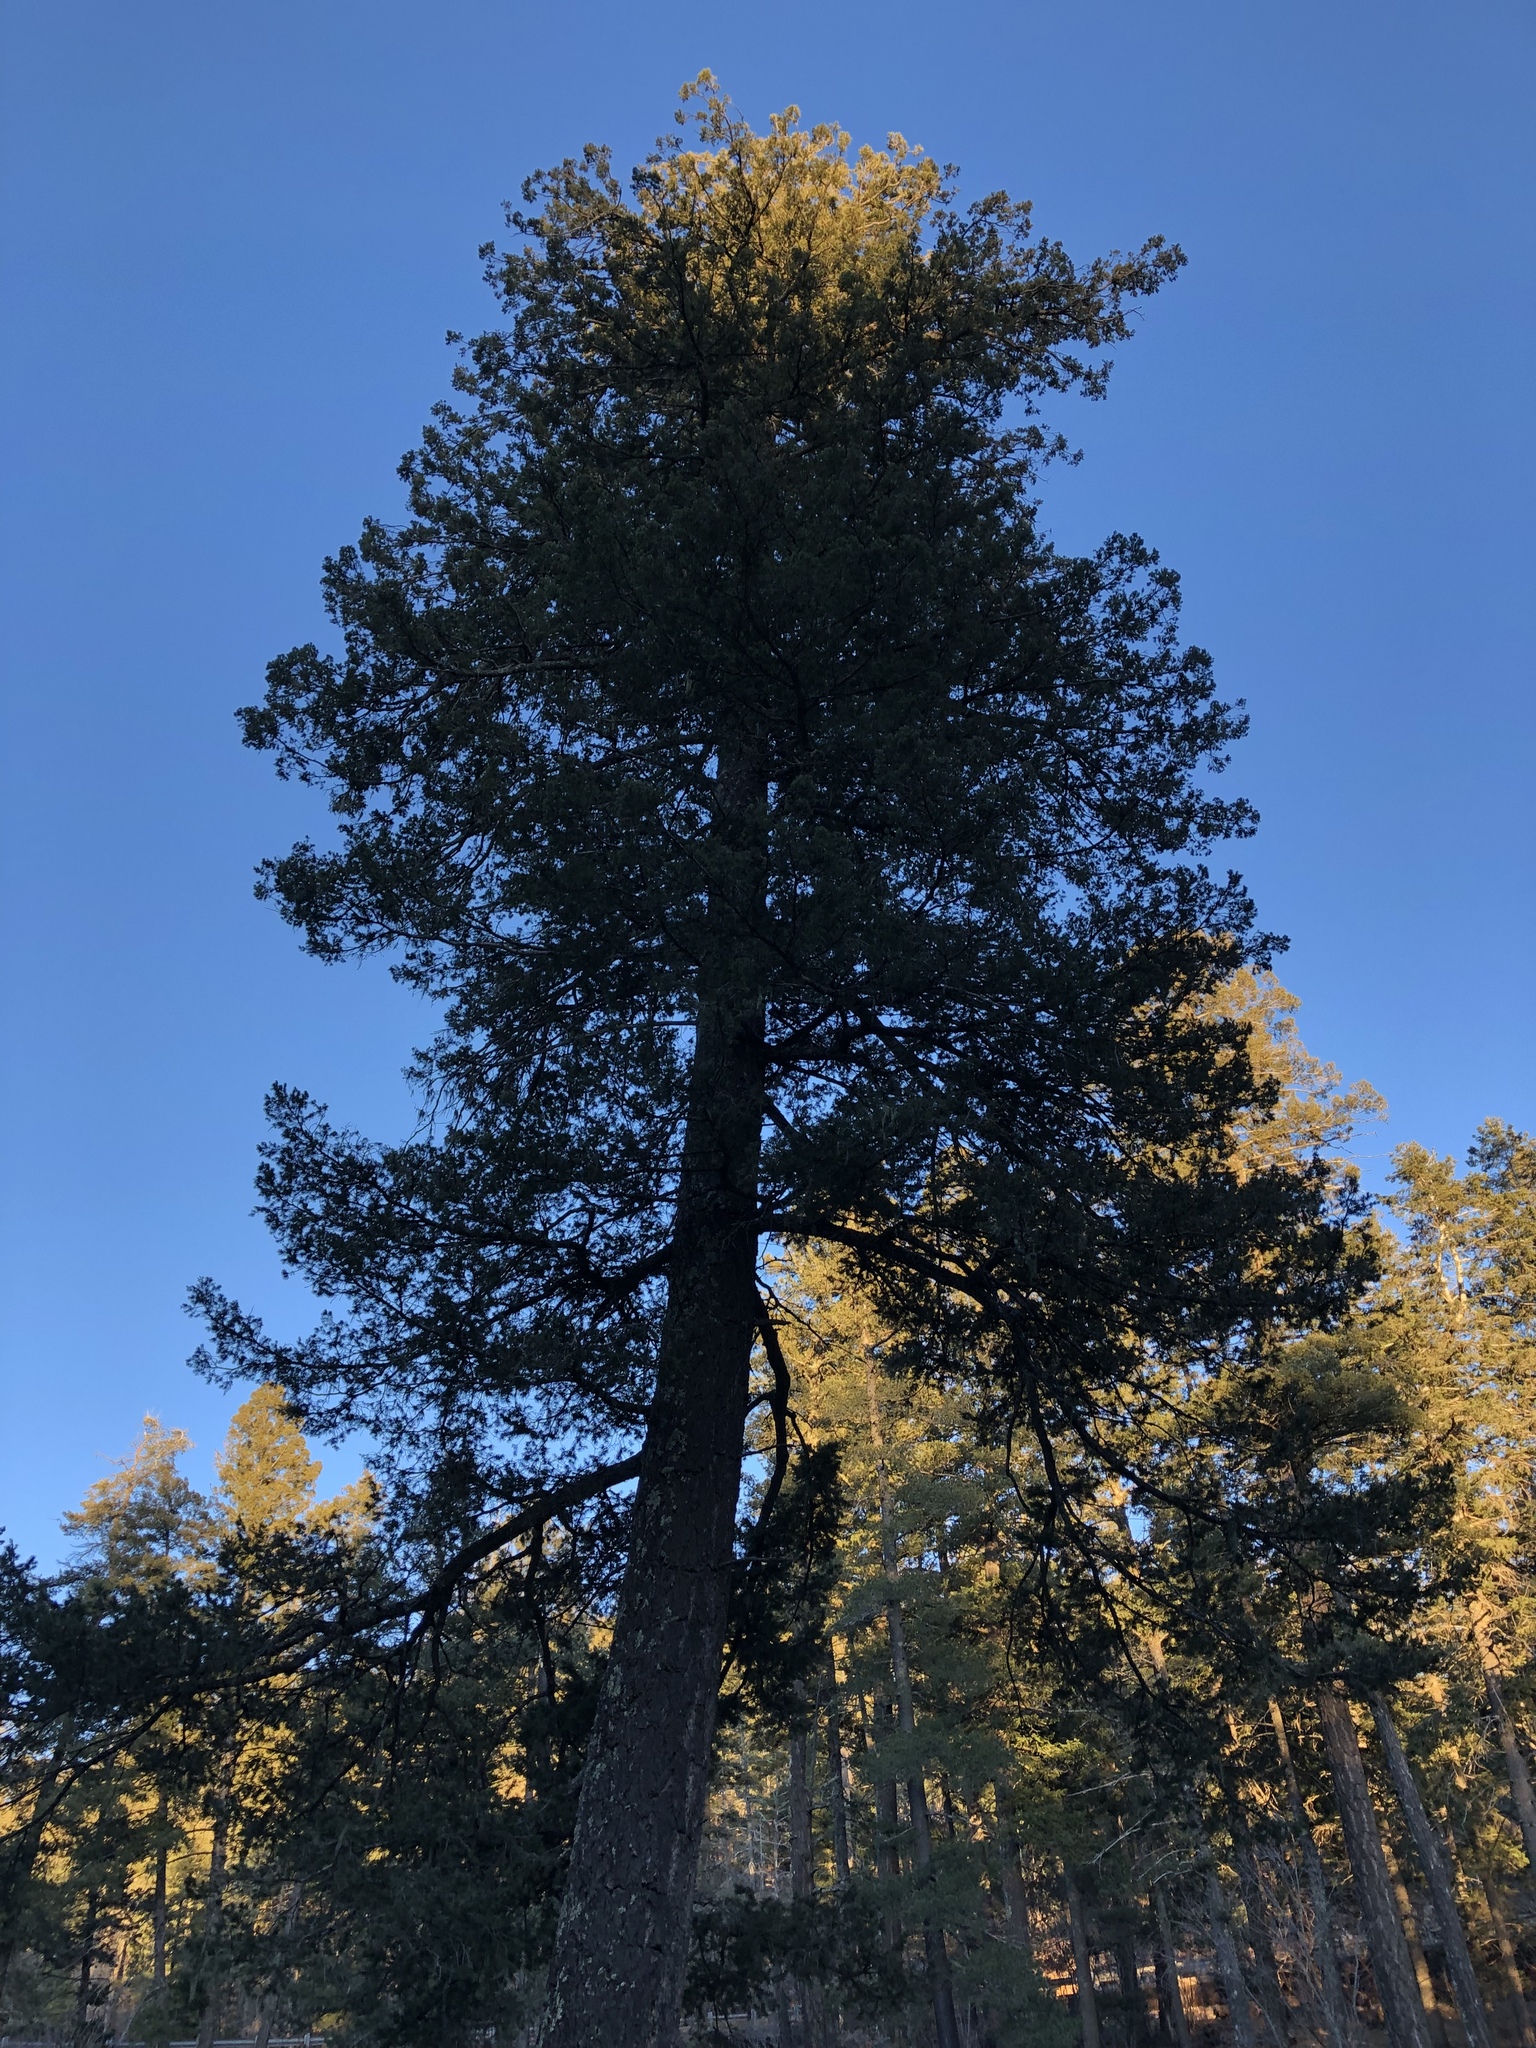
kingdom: Plantae
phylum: Tracheophyta
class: Pinopsida
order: Pinales
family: Pinaceae
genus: Pseudotsuga
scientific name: Pseudotsuga menziesii
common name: Douglas fir
